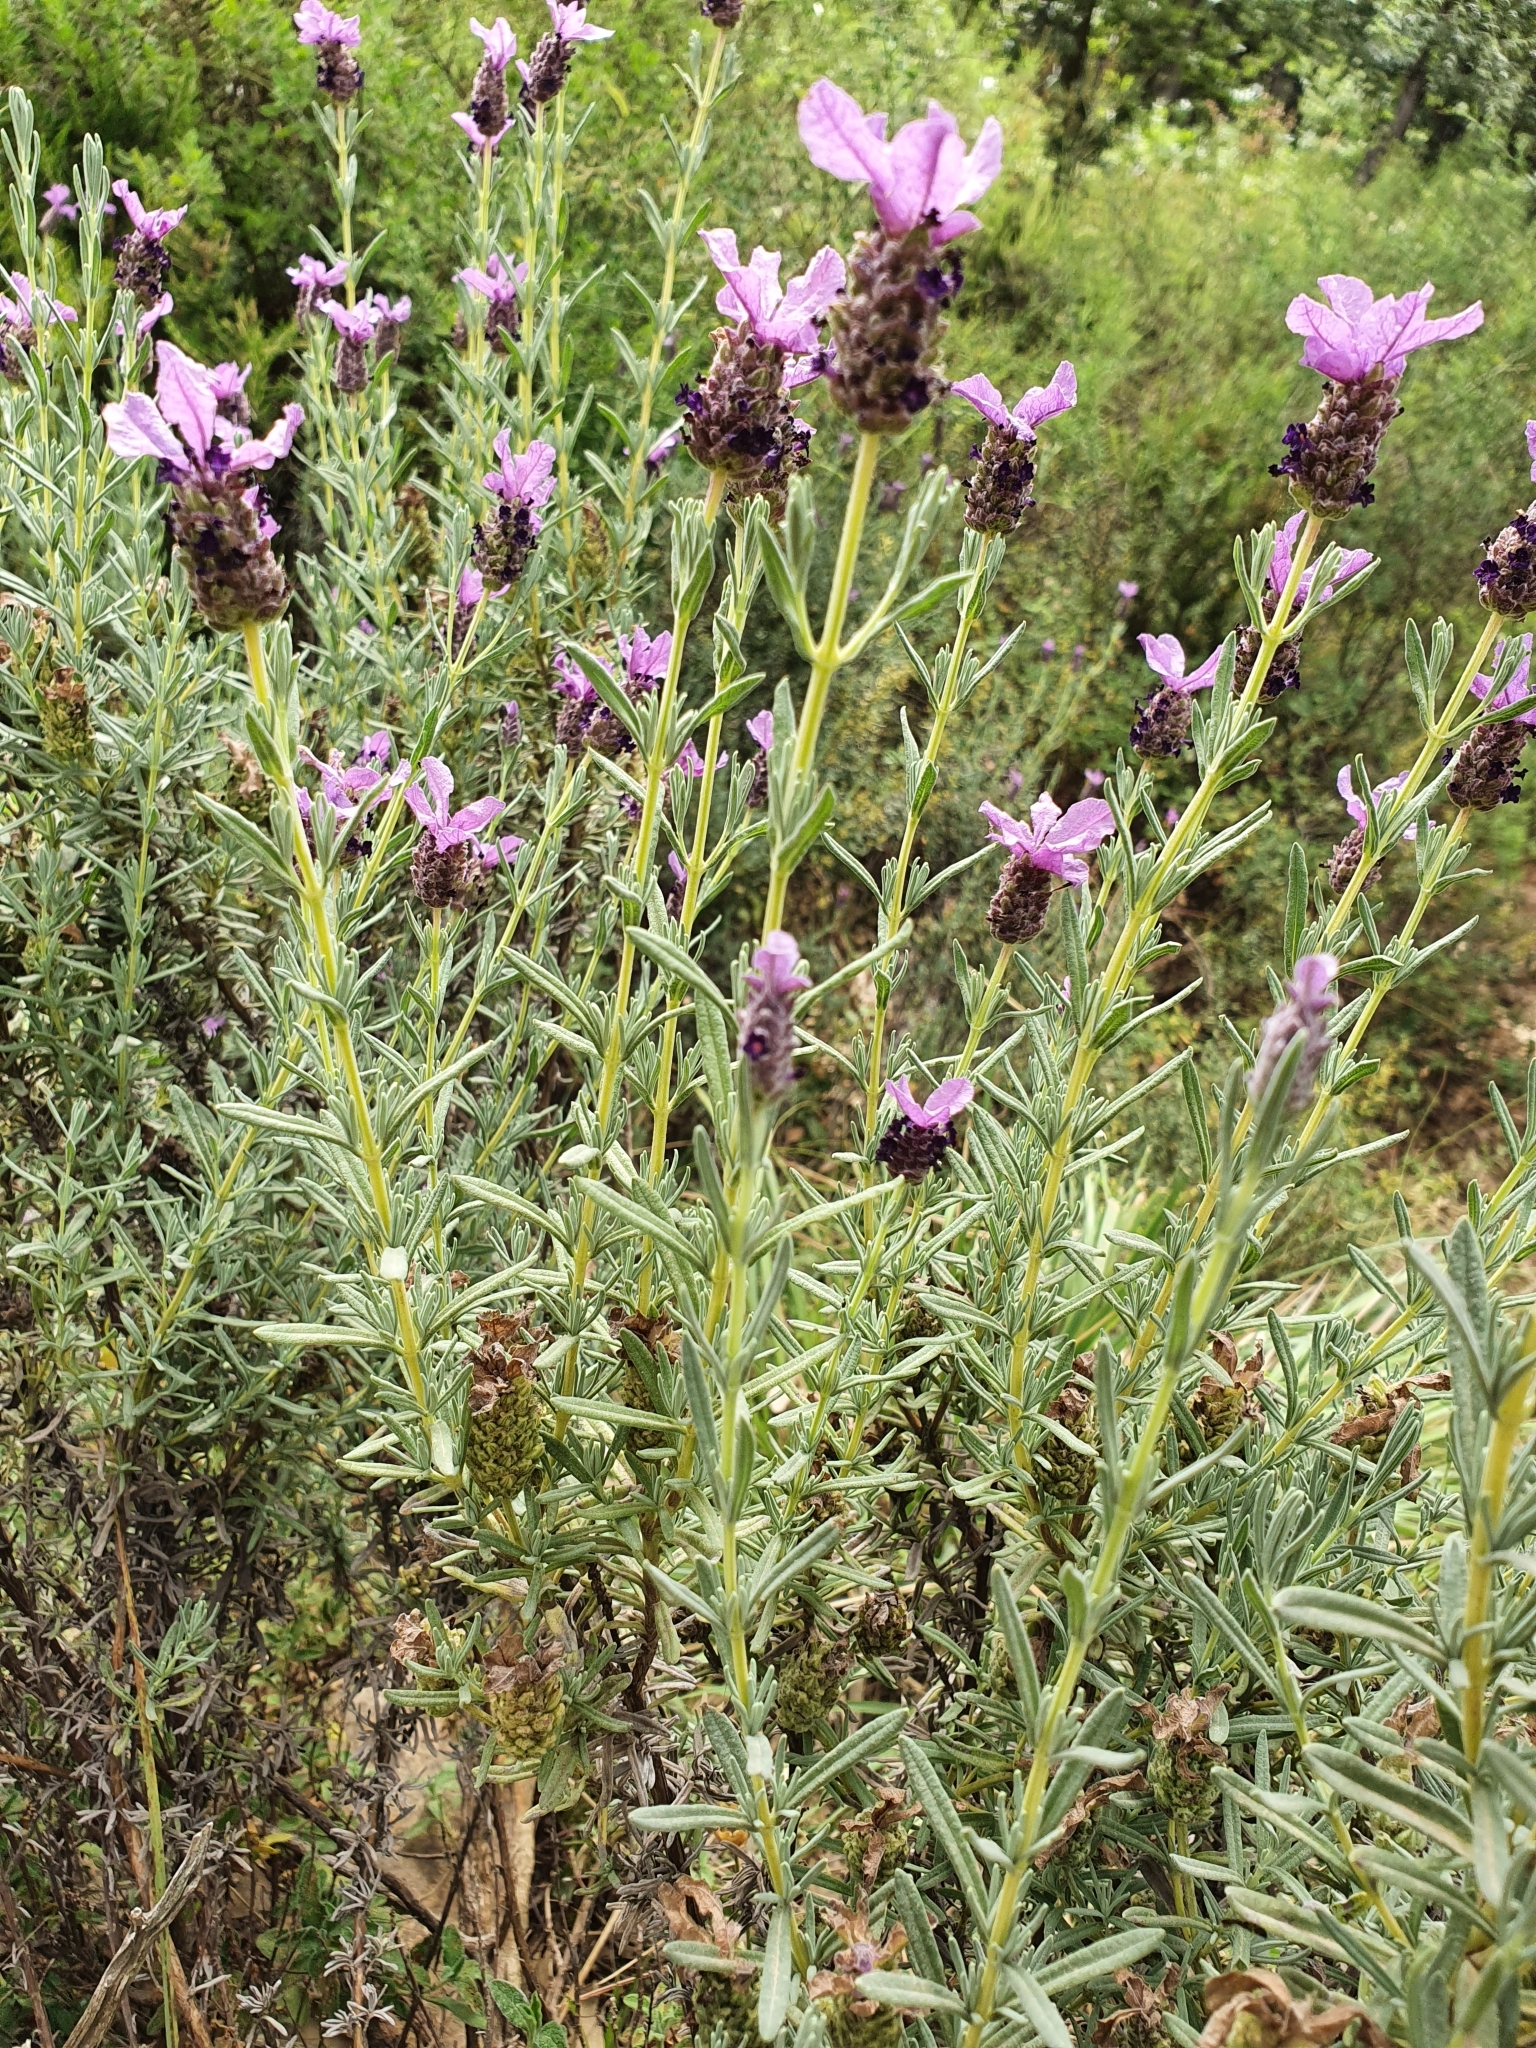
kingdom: Plantae
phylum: Tracheophyta
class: Magnoliopsida
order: Lamiales
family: Lamiaceae
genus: Lavandula
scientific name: Lavandula stoechas
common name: French lavender
